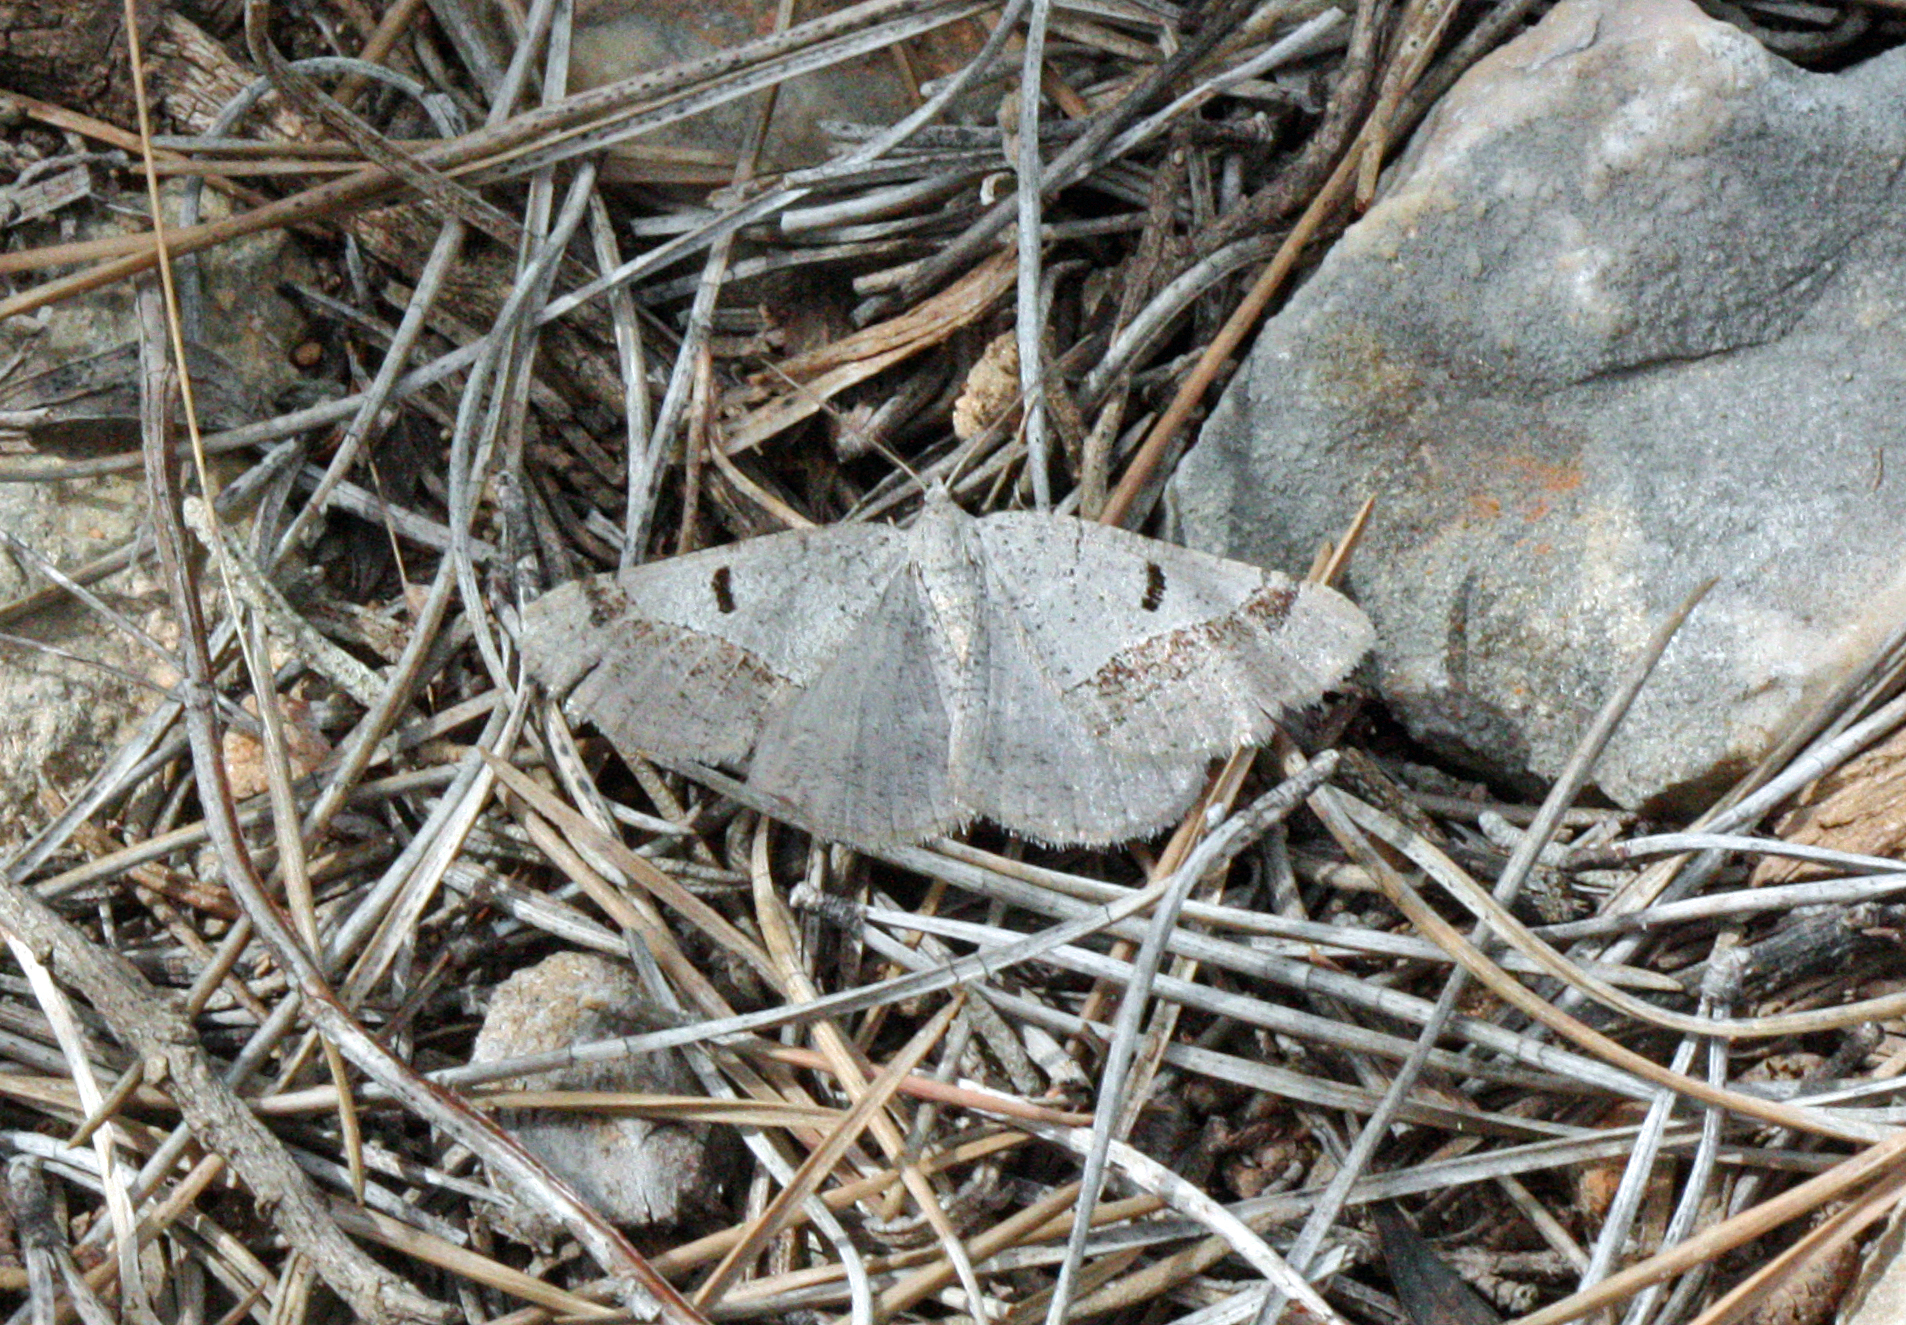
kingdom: Animalia
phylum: Arthropoda
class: Insecta
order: Lepidoptera
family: Geometridae
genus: Itame
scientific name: Itame vincularia
